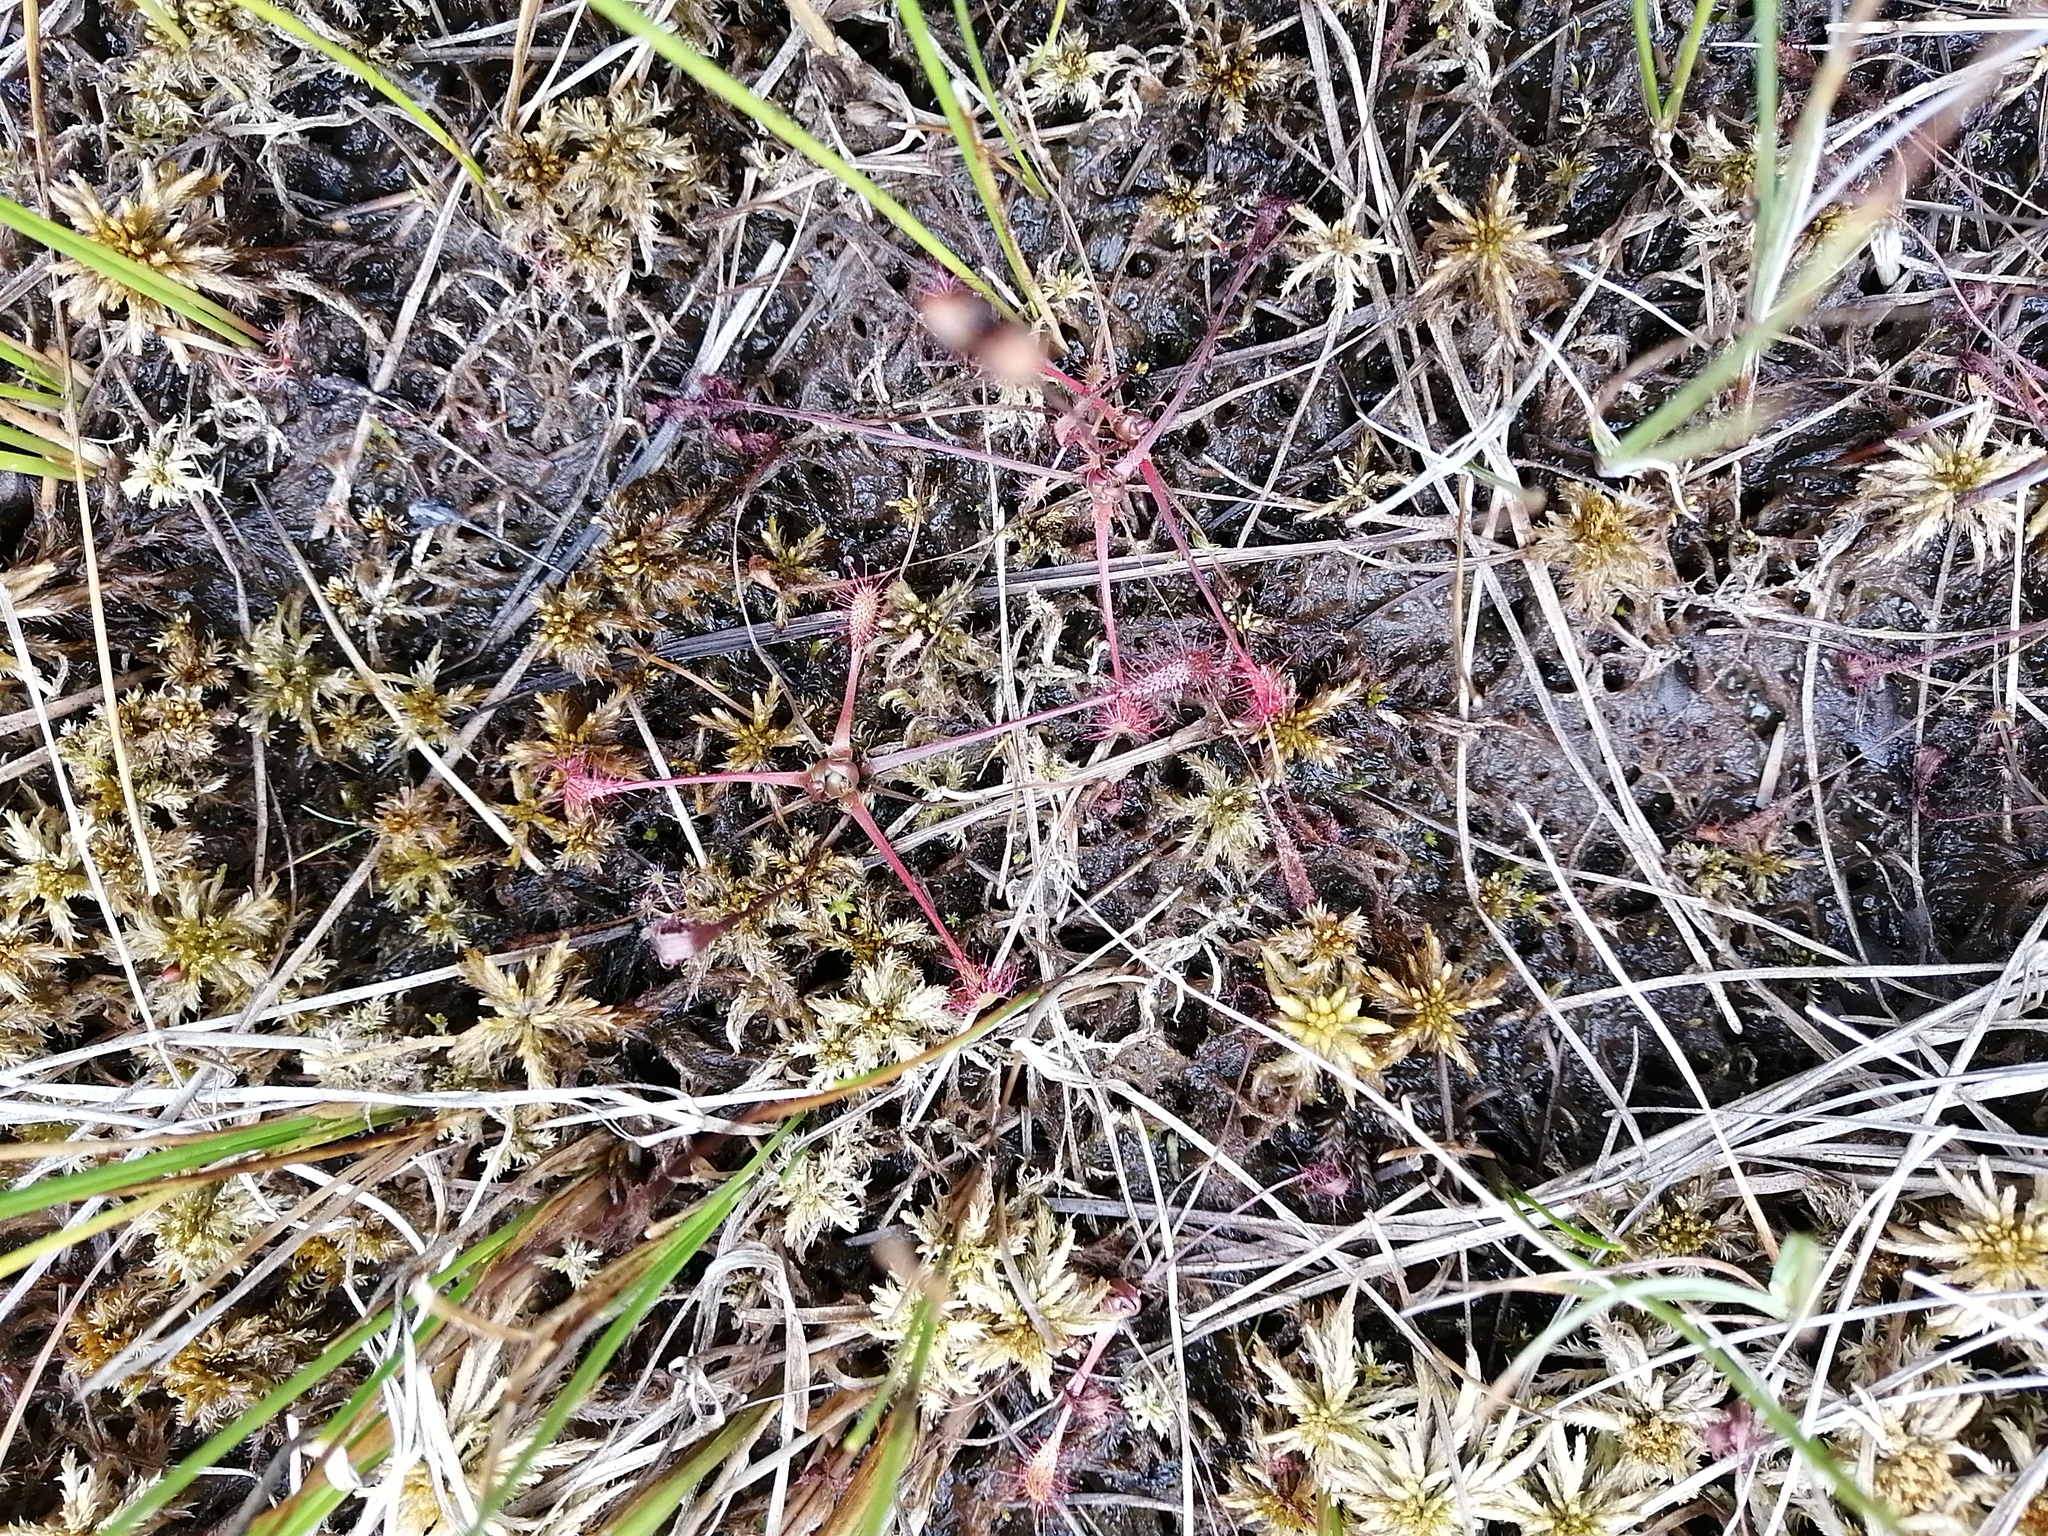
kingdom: Plantae
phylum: Tracheophyta
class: Magnoliopsida
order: Caryophyllales
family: Droseraceae
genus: Drosera
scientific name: Drosera anglica
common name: Great sundew
